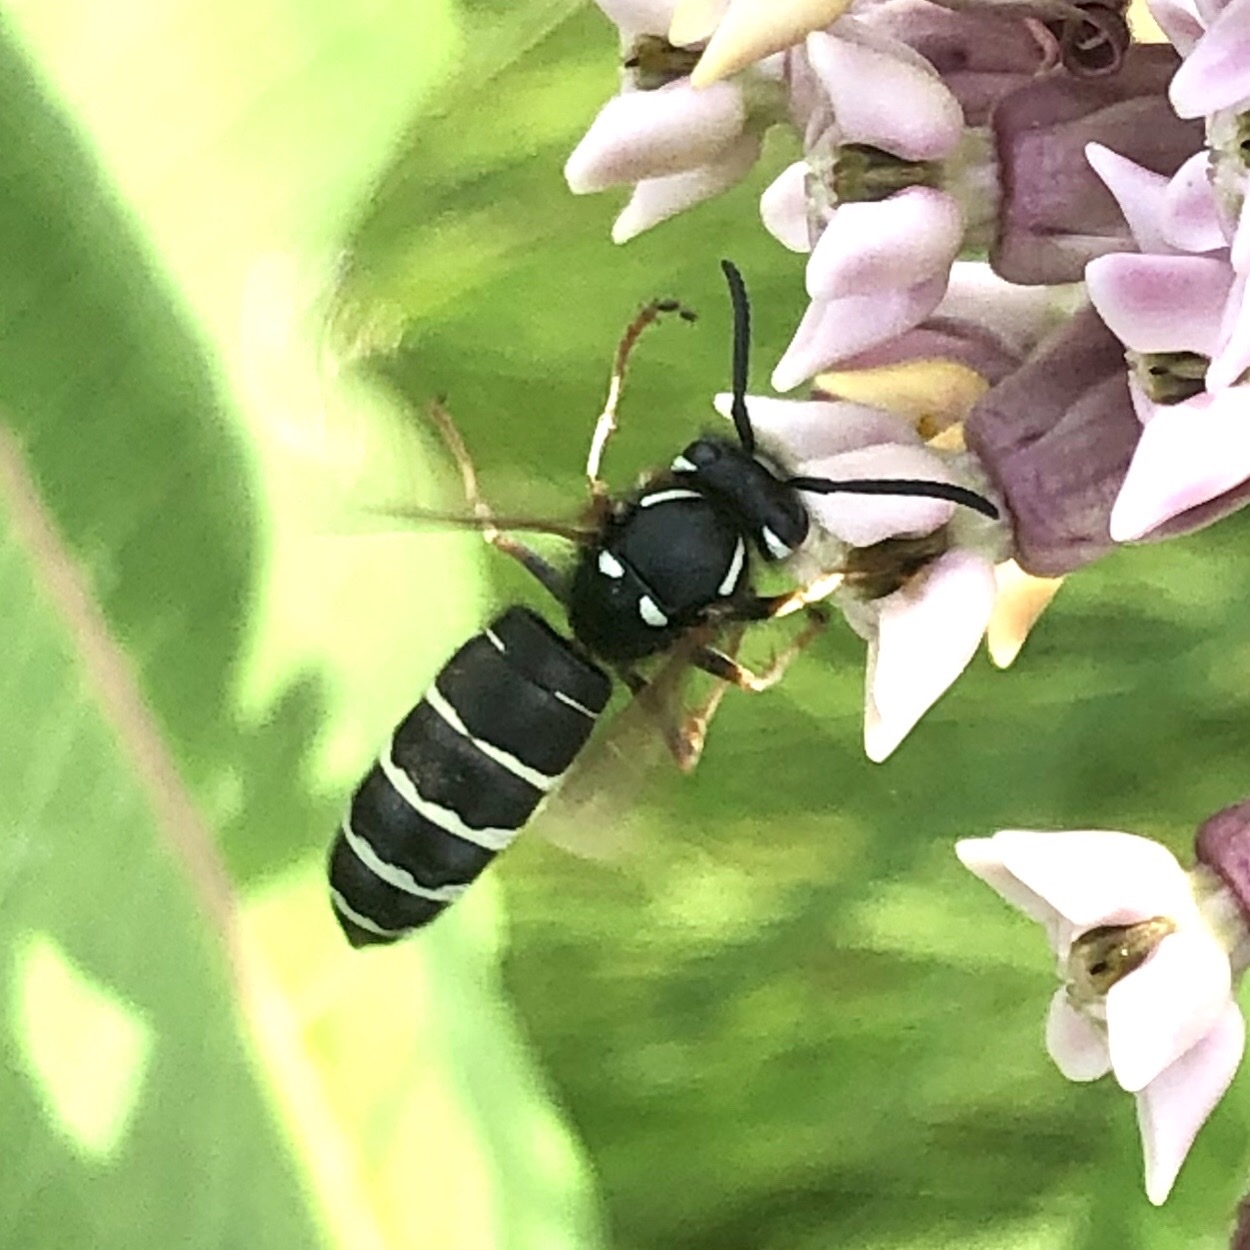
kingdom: Animalia
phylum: Arthropoda
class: Insecta
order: Hymenoptera
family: Vespidae
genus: Vespula
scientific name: Vespula consobrina
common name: Blackjacket
